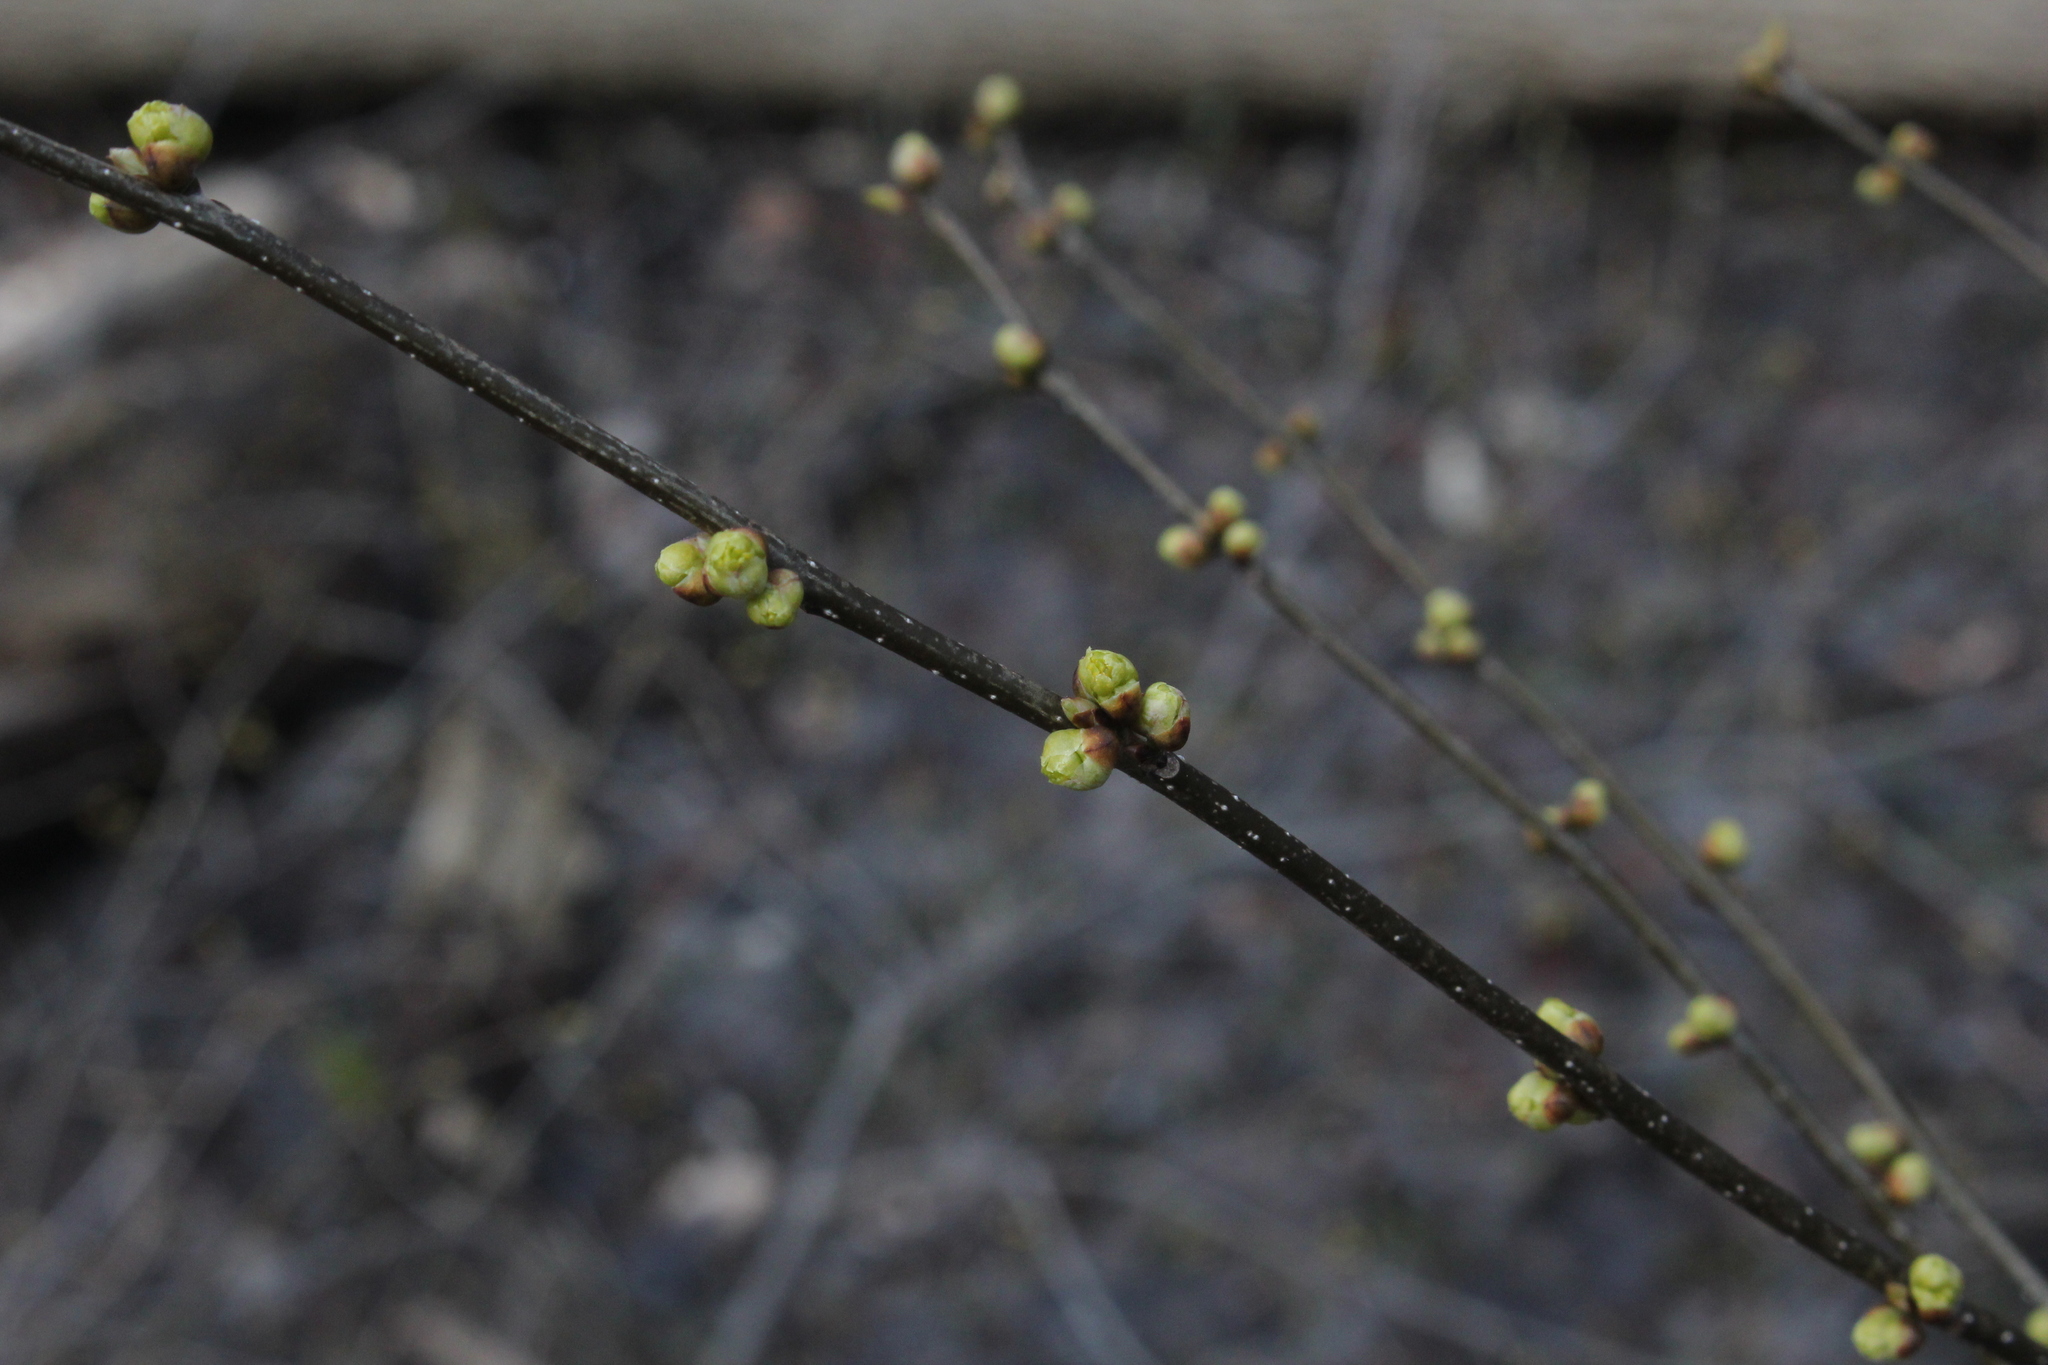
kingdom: Plantae
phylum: Tracheophyta
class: Magnoliopsida
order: Laurales
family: Lauraceae
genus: Lindera
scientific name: Lindera benzoin
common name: Spicebush
